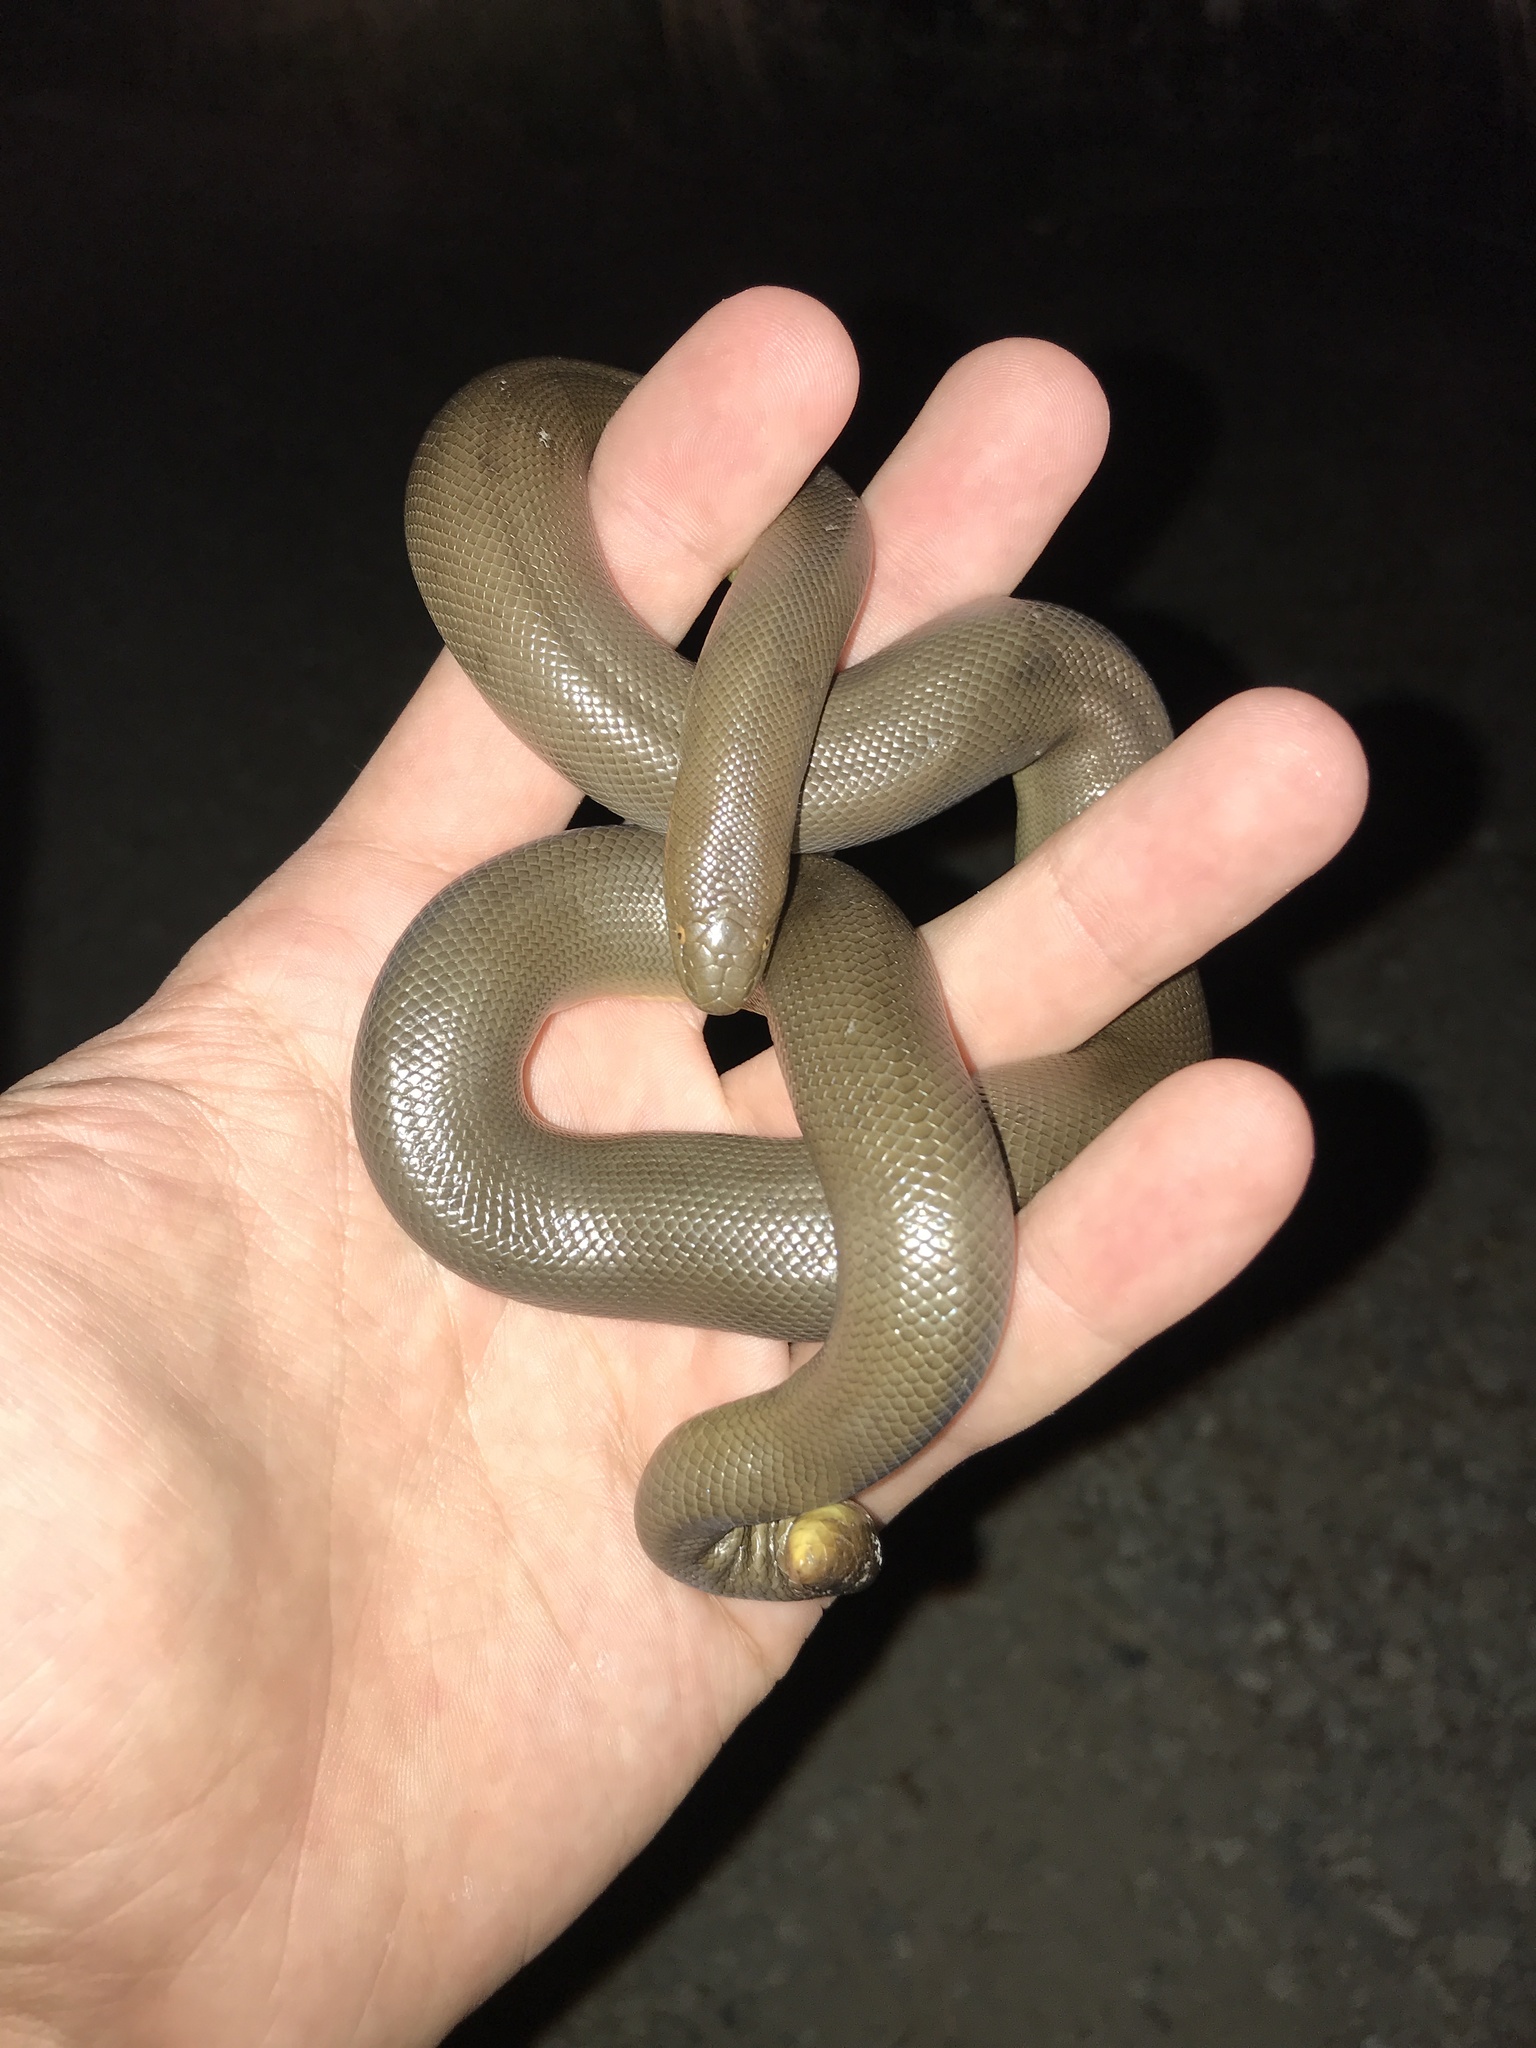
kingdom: Animalia
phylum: Chordata
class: Squamata
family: Boidae
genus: Charina
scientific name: Charina bottae
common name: Northern rubber boa
